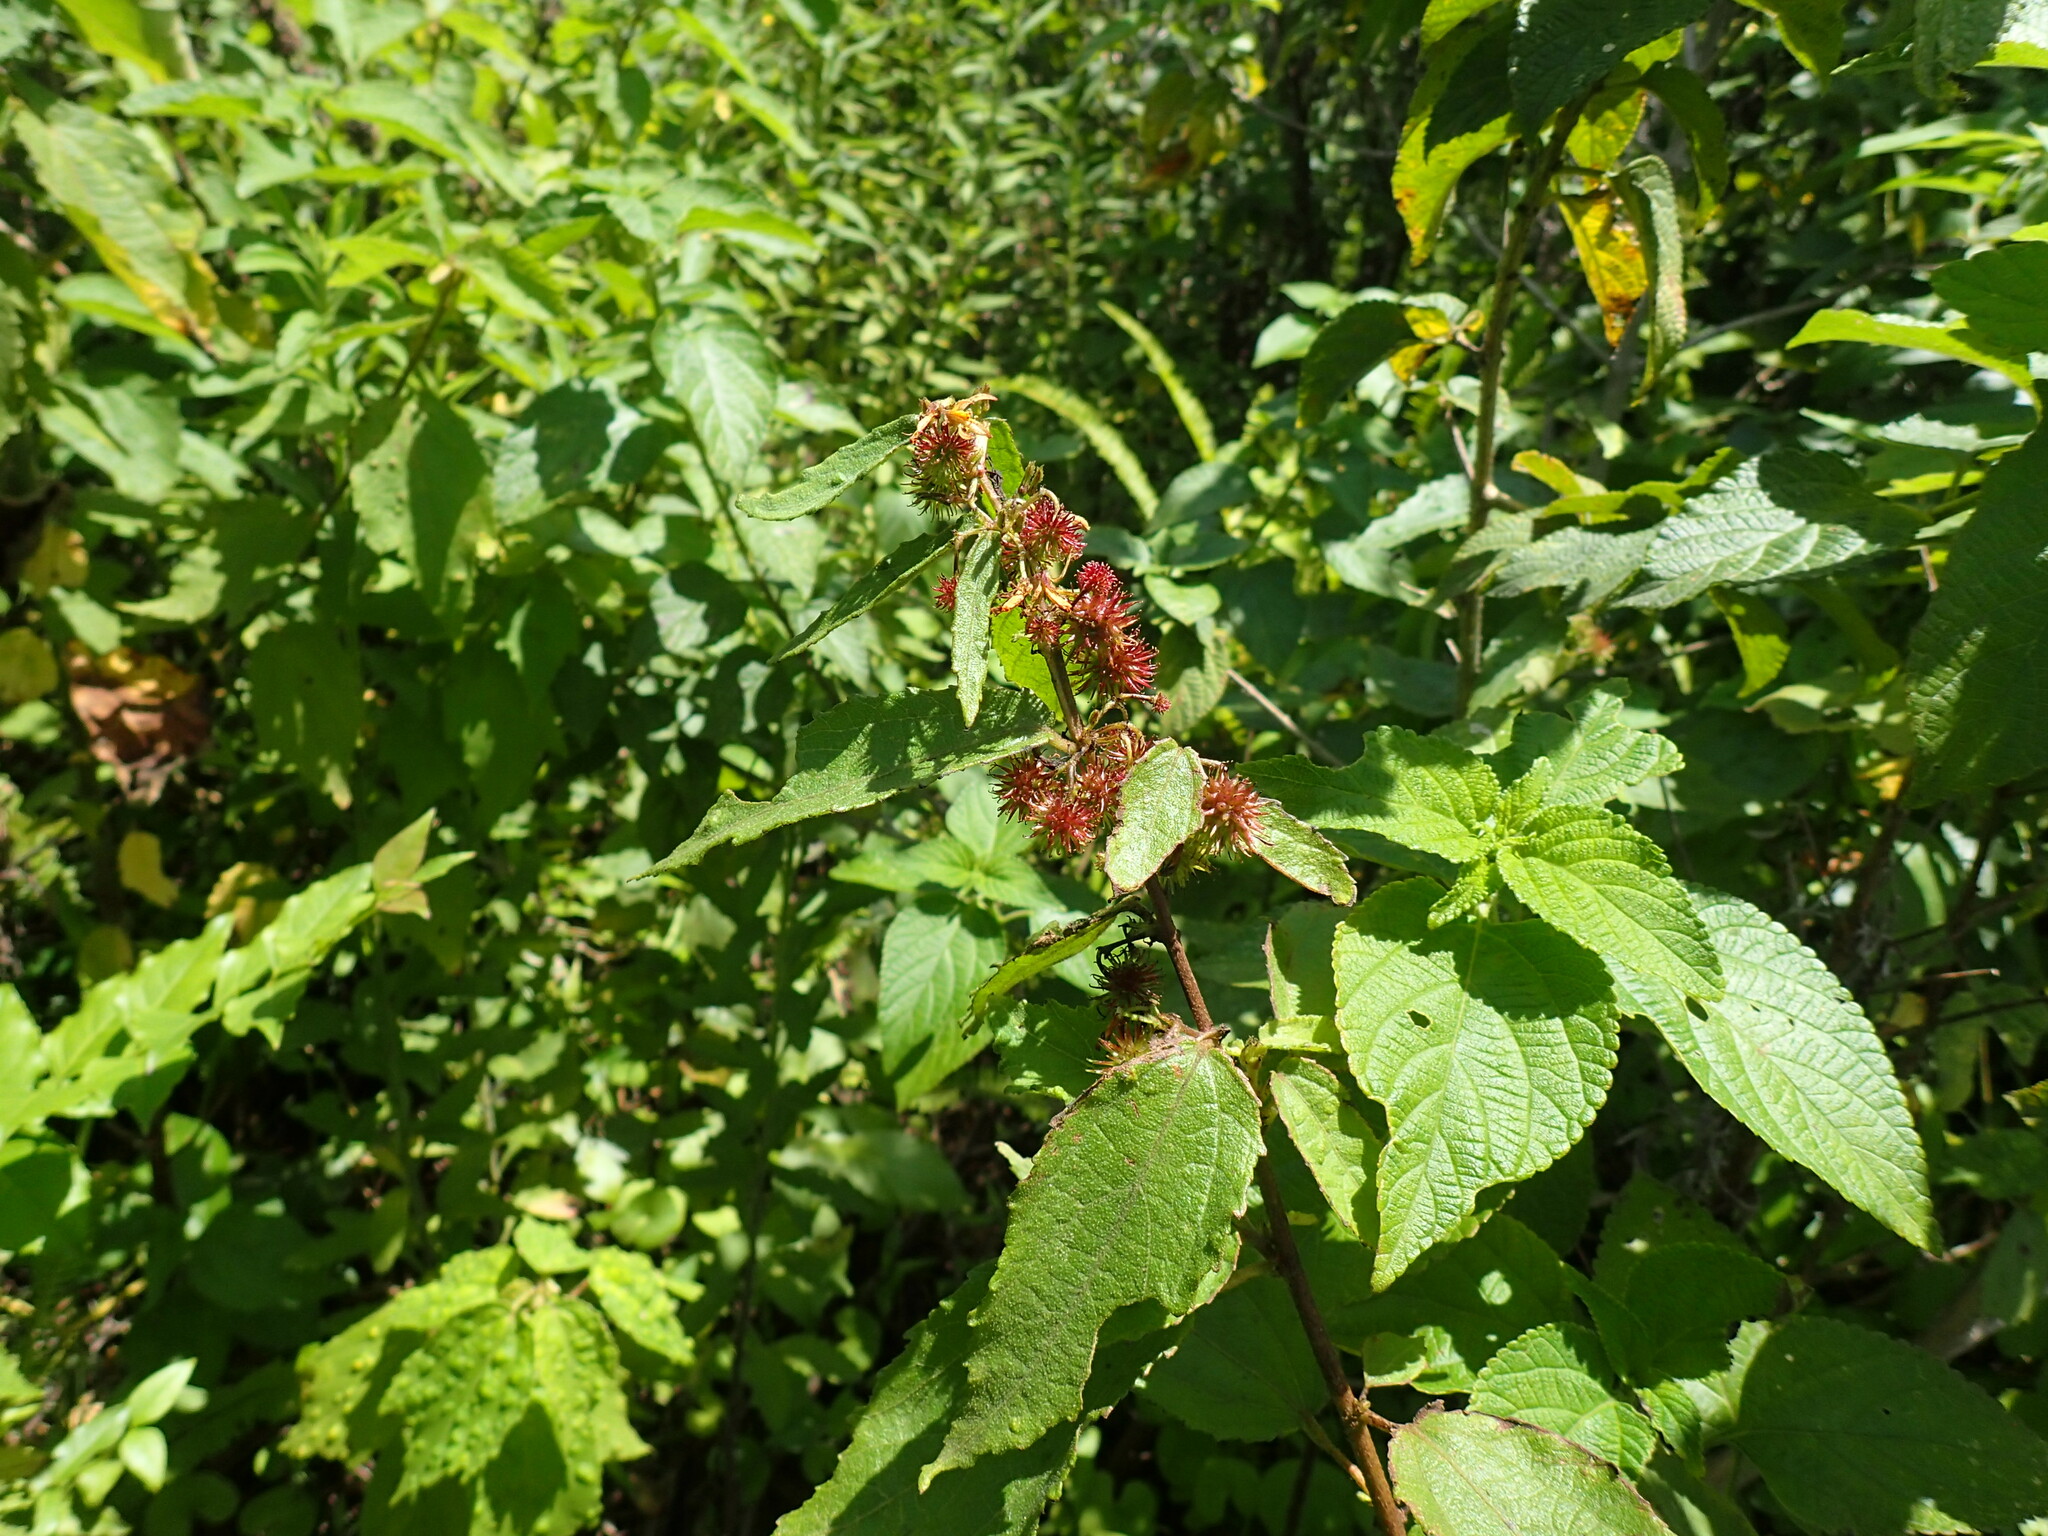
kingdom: Plantae
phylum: Tracheophyta
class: Magnoliopsida
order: Malvales
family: Malvaceae
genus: Triumfetta
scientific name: Triumfetta pilosa
